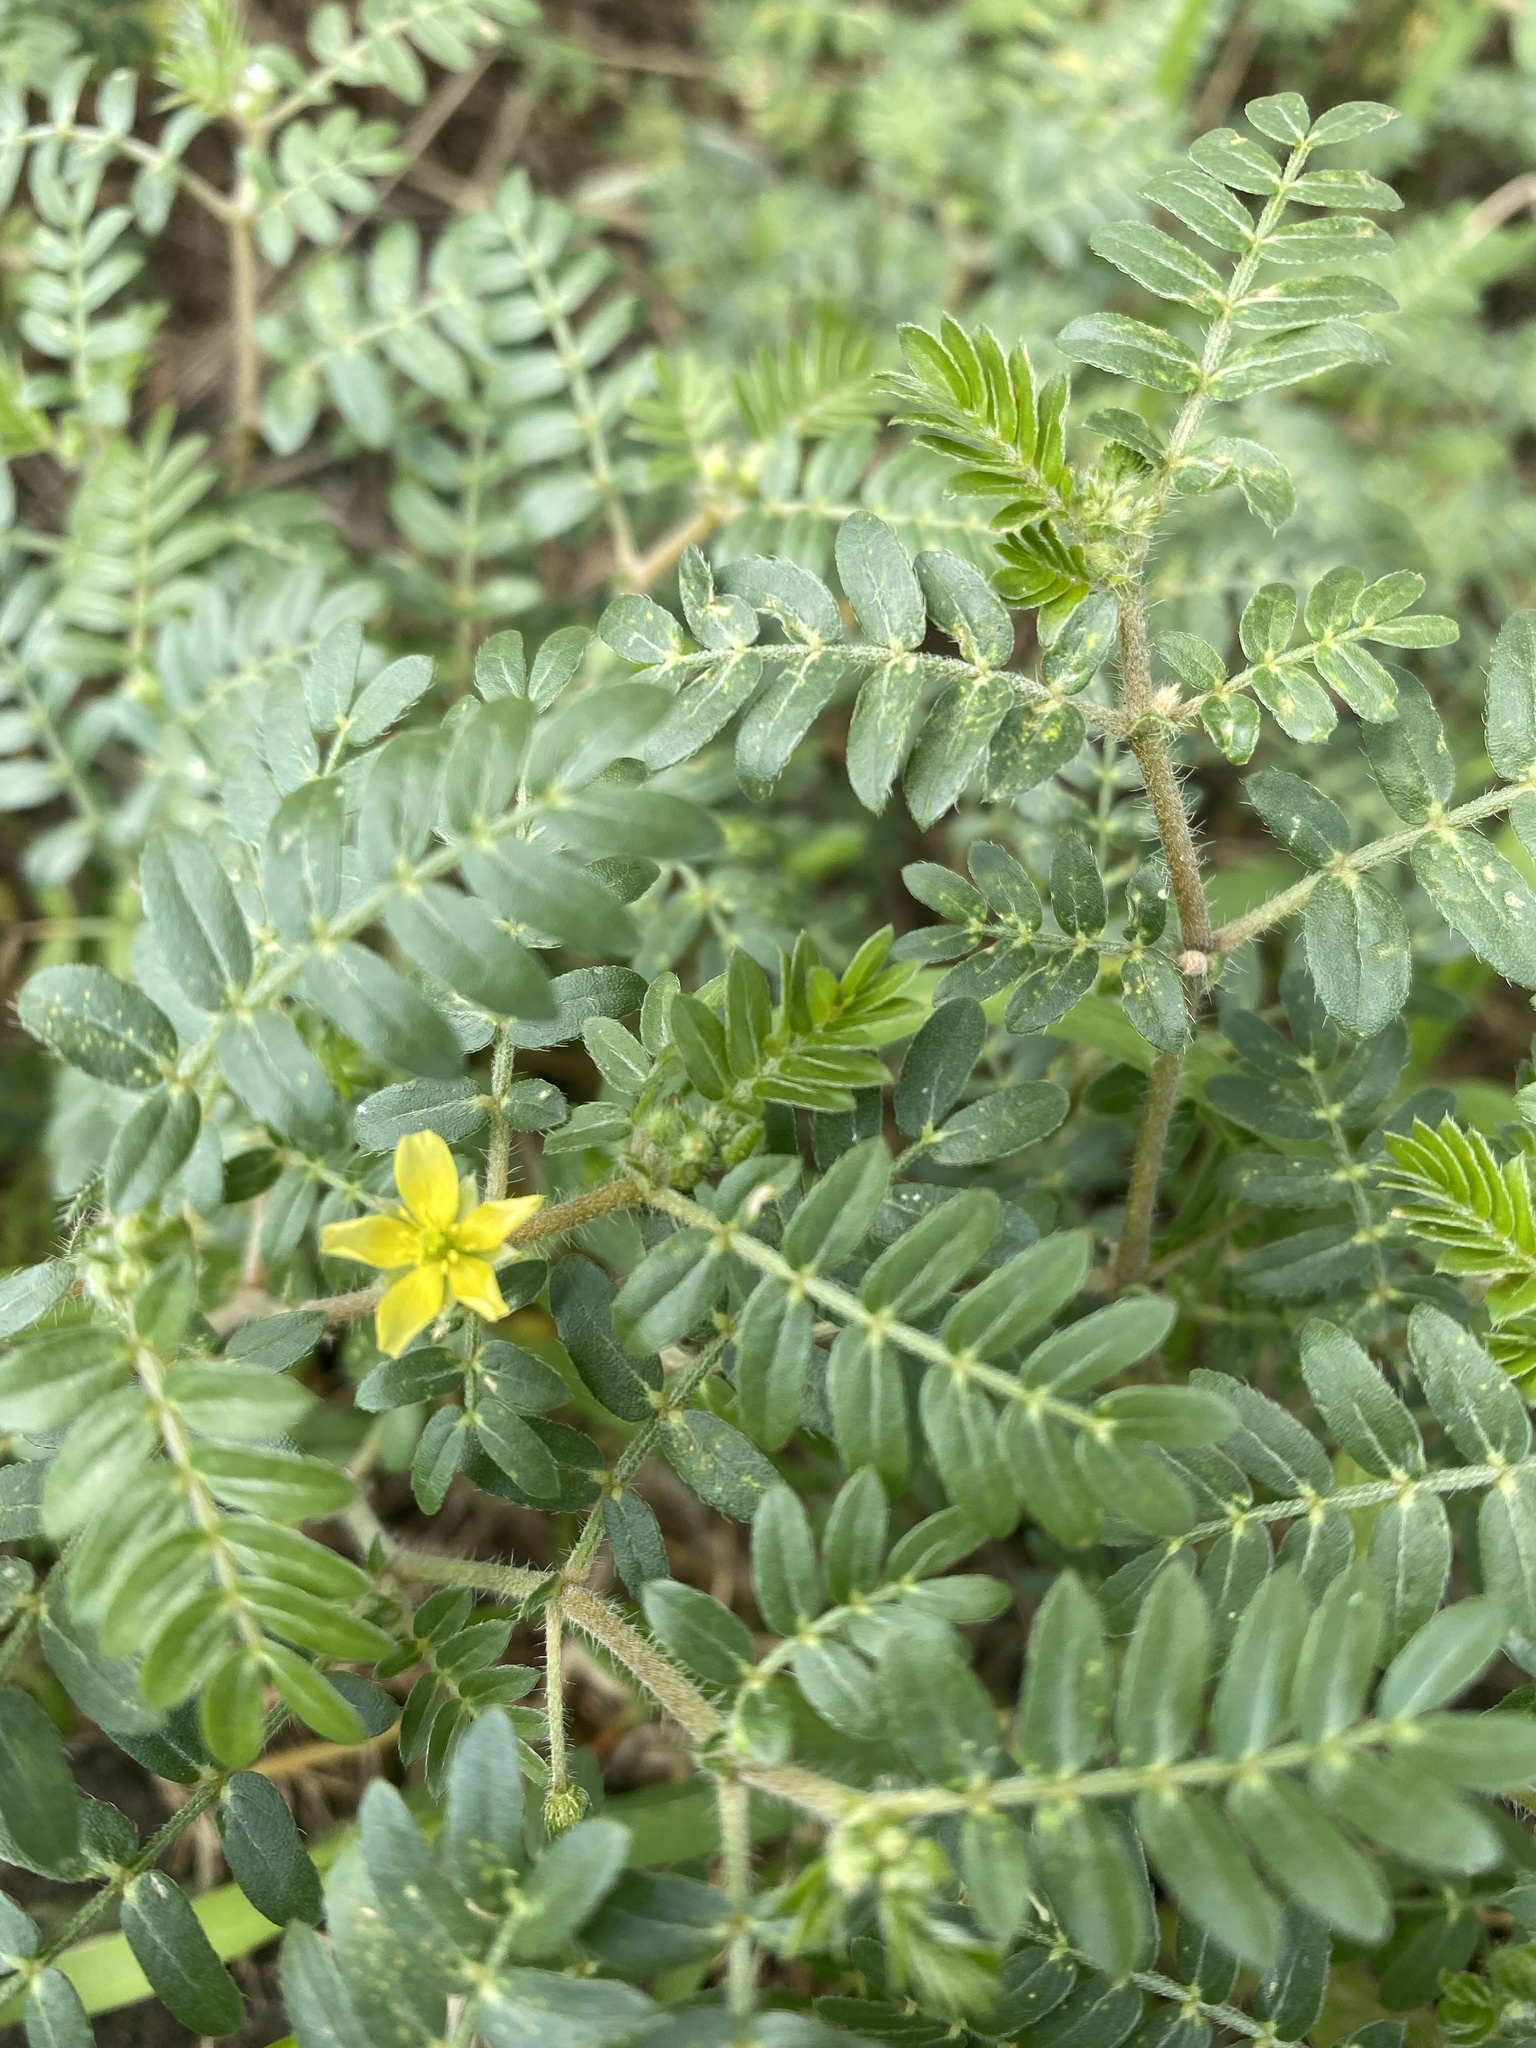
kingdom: Plantae
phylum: Tracheophyta
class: Magnoliopsida
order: Zygophyllales
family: Zygophyllaceae
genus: Tribulus
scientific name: Tribulus terrestris
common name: Puncturevine
